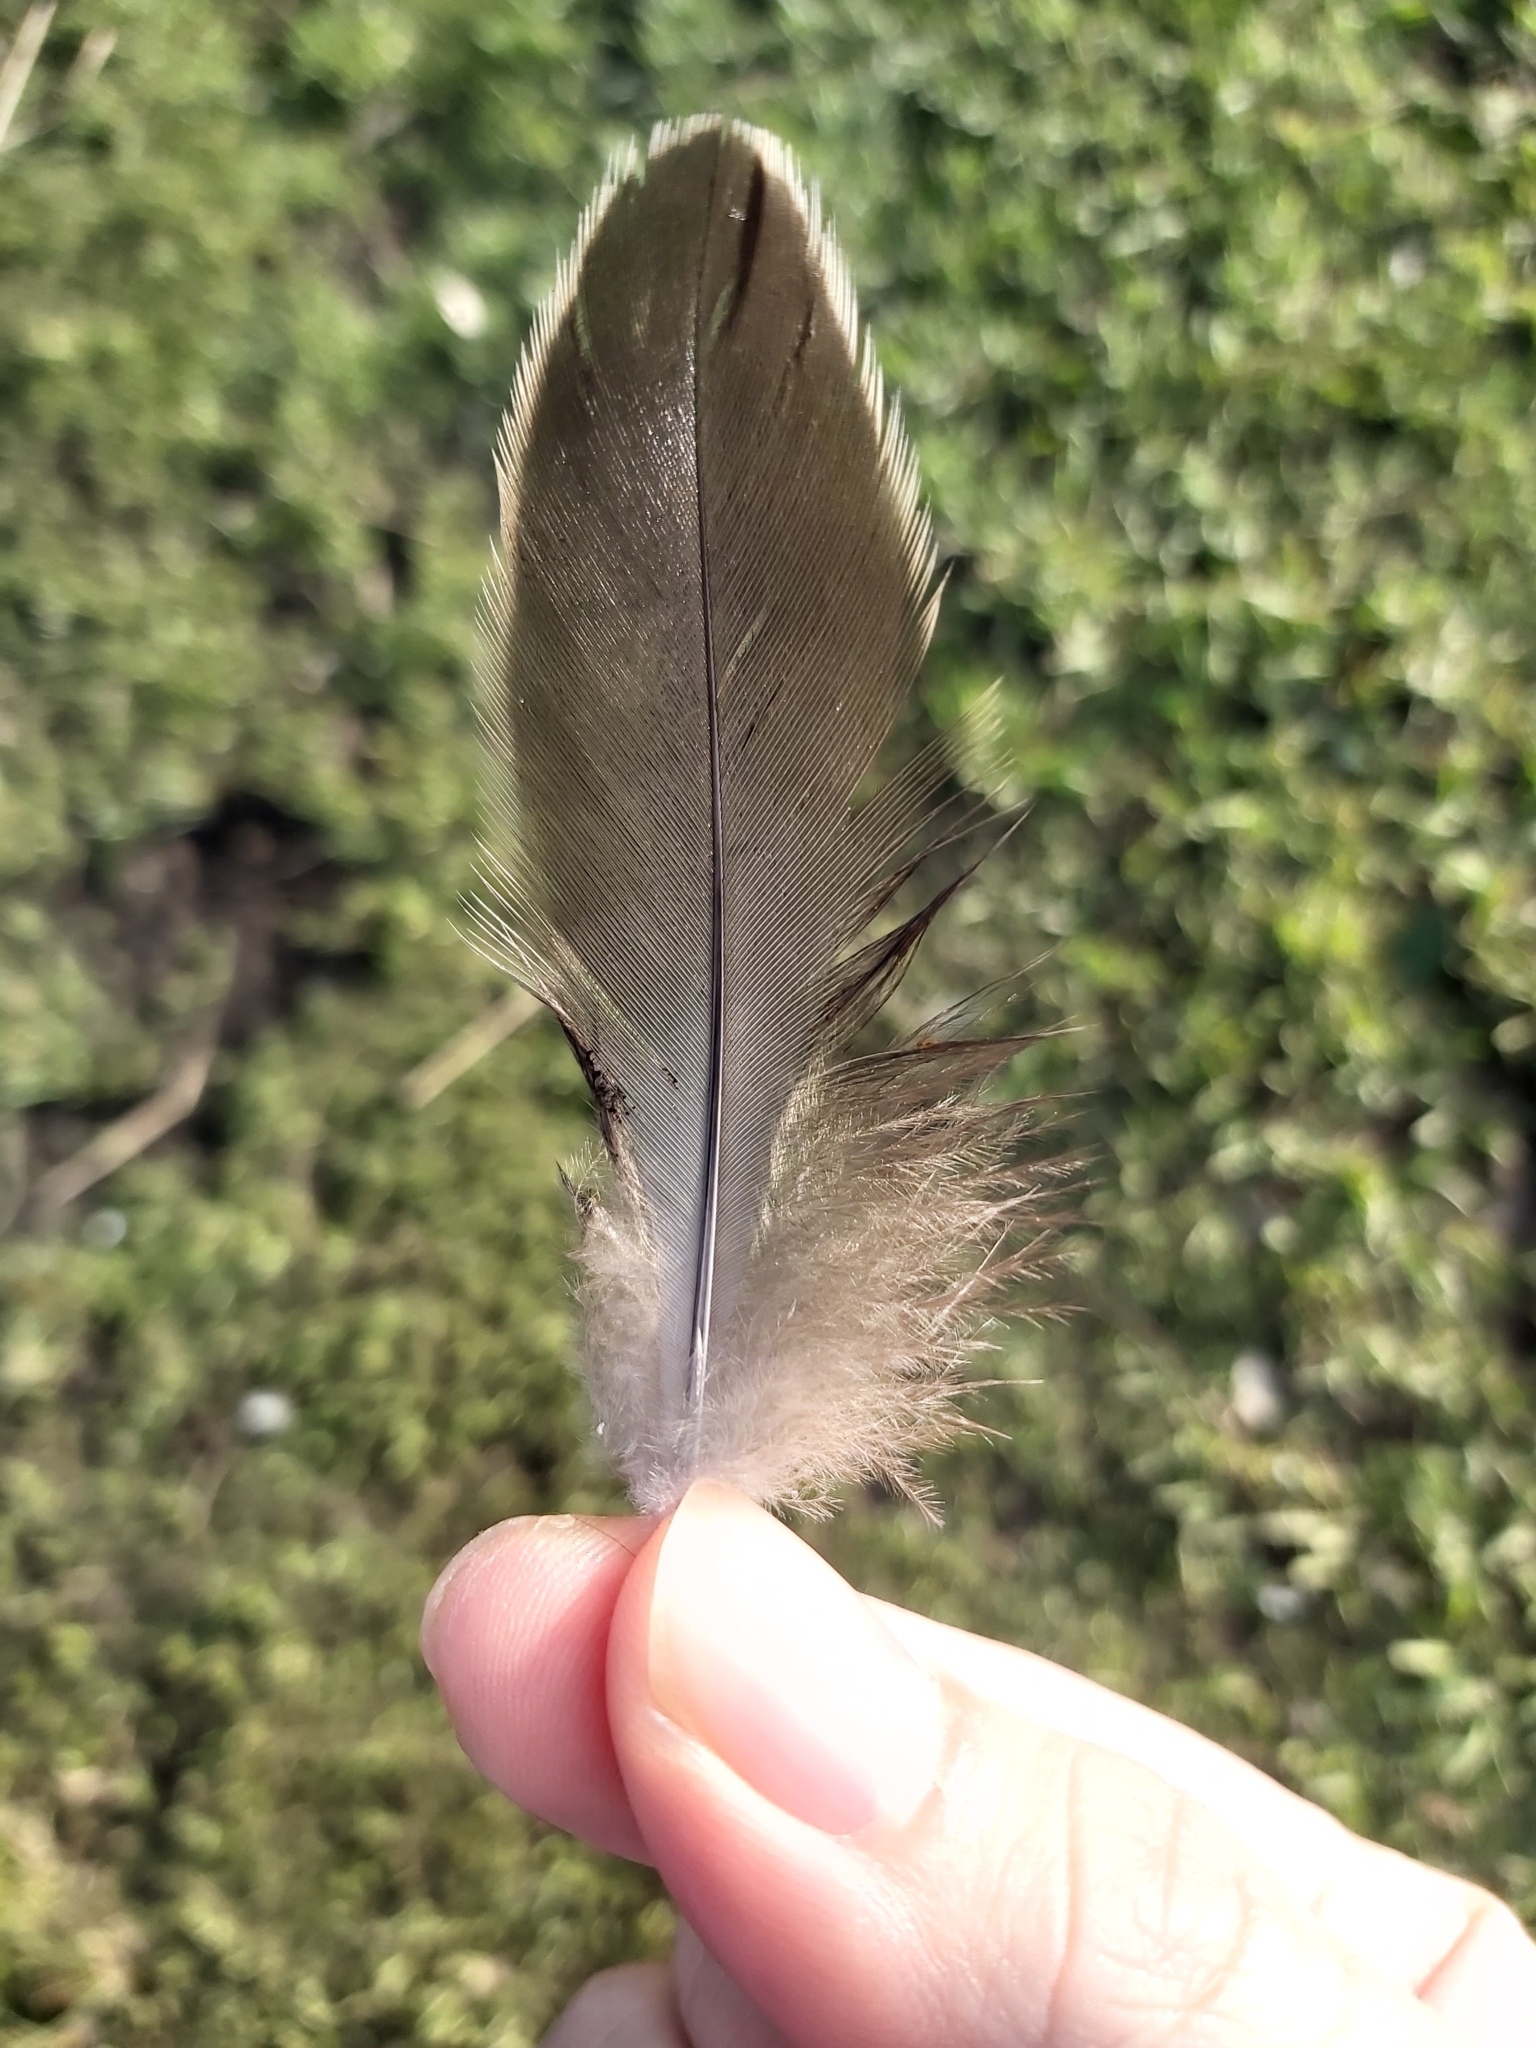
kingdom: Animalia
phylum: Chordata
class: Aves
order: Anseriformes
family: Anatidae
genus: Anas
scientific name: Anas superciliosa
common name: Pacific black duck
